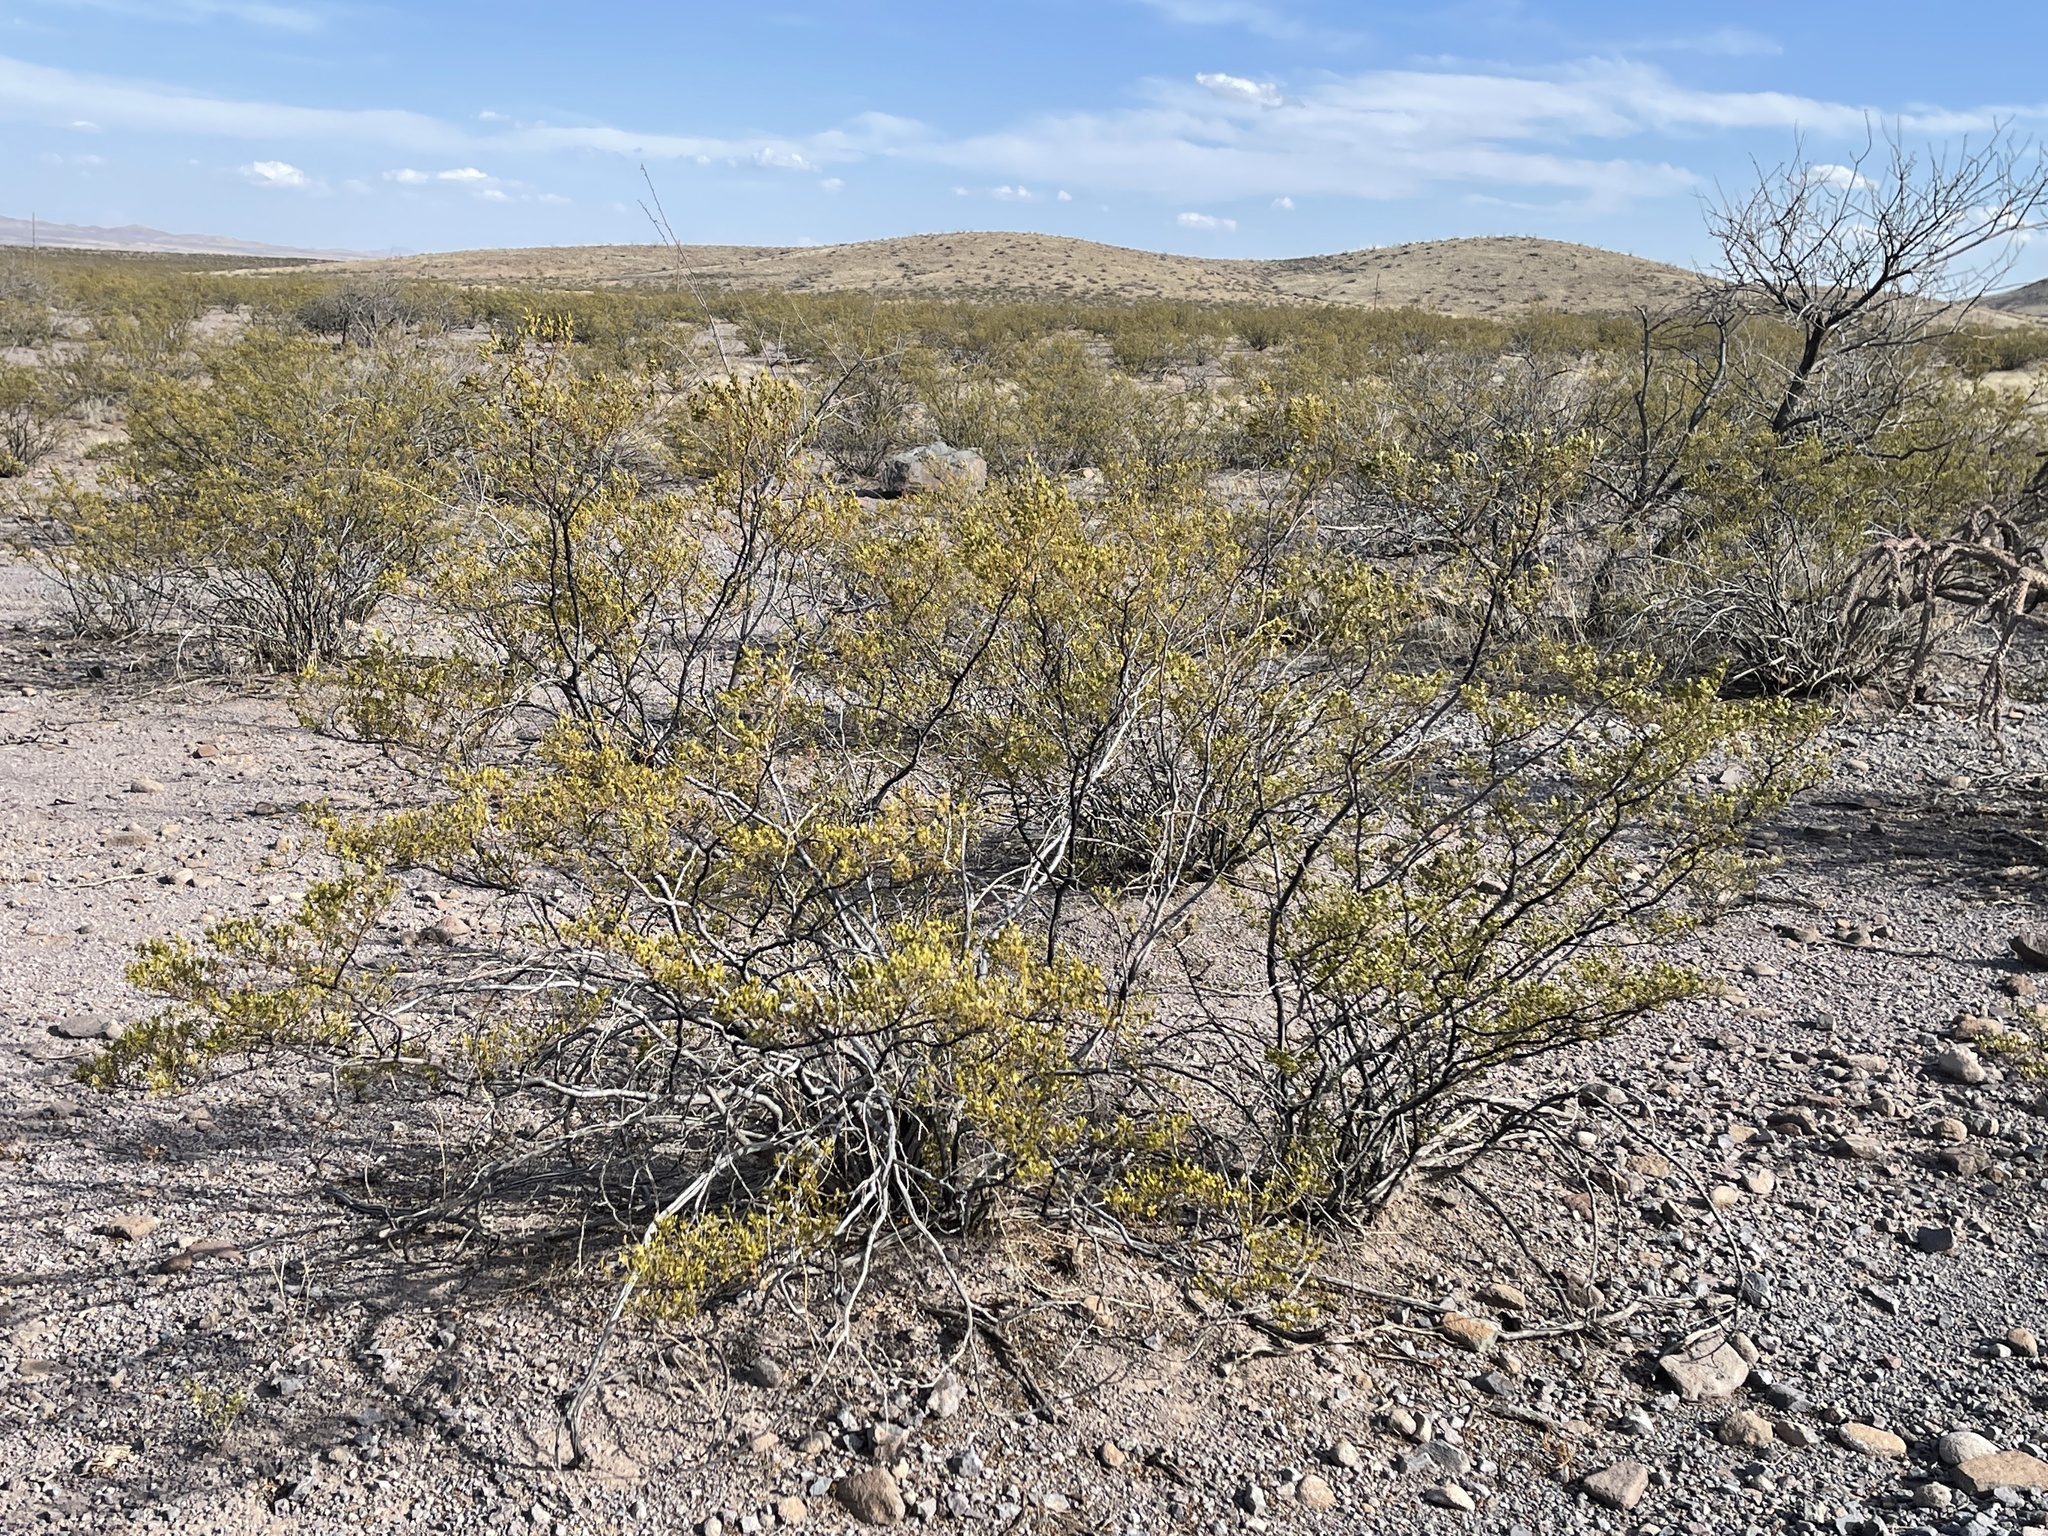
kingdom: Plantae
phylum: Tracheophyta
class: Magnoliopsida
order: Zygophyllales
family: Zygophyllaceae
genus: Larrea
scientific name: Larrea tridentata
